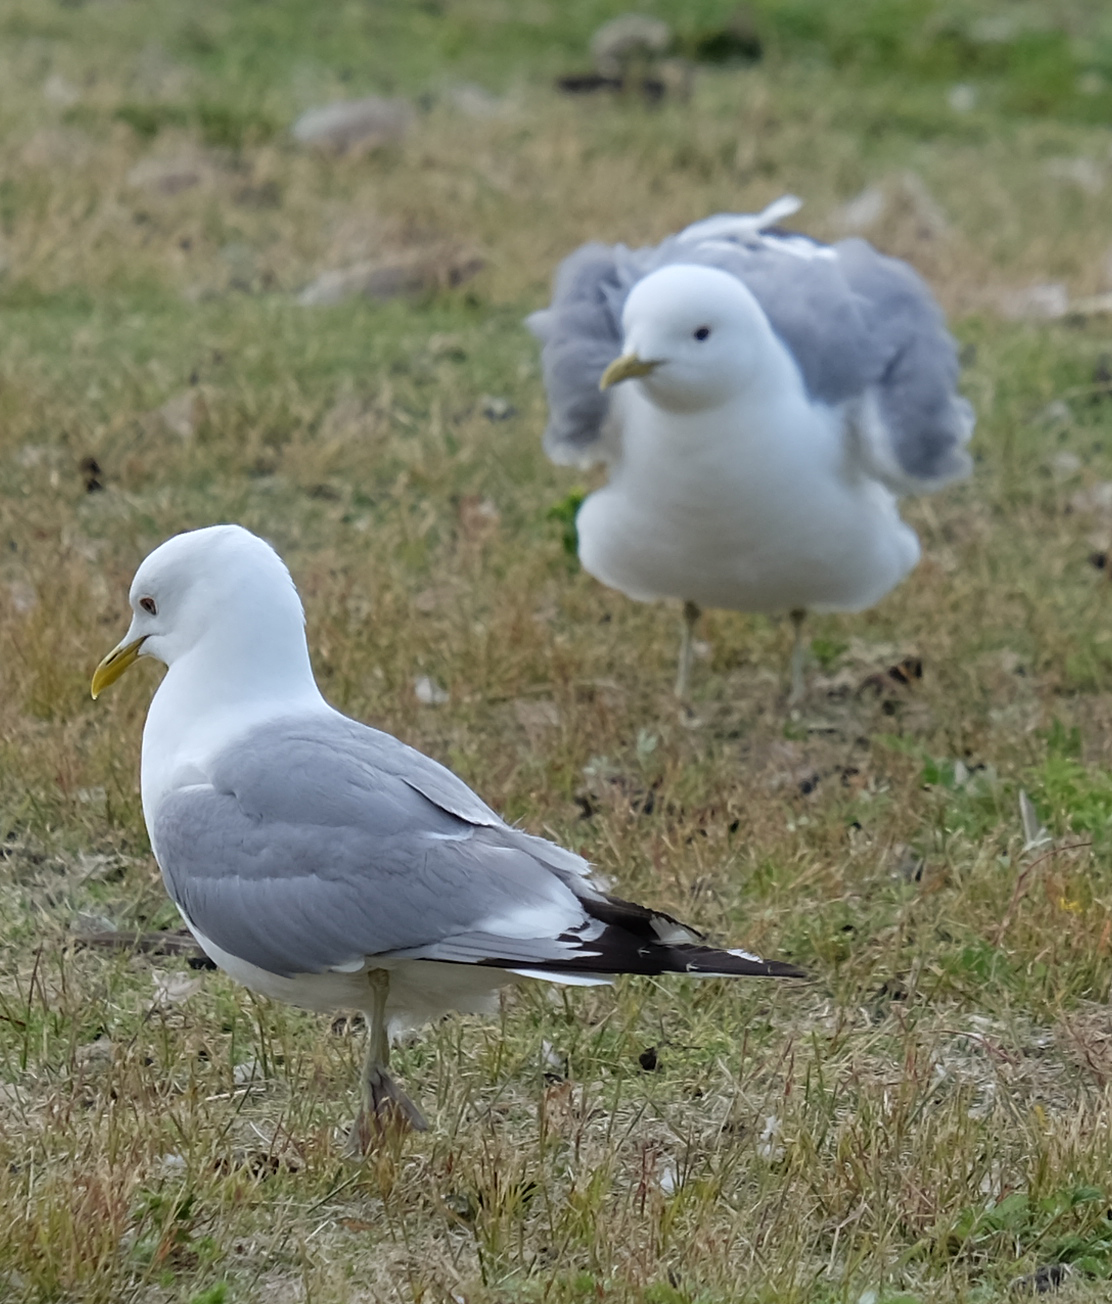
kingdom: Animalia
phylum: Chordata
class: Aves
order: Charadriiformes
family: Laridae
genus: Larus
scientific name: Larus brachyrhynchus
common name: Short-billed gull
